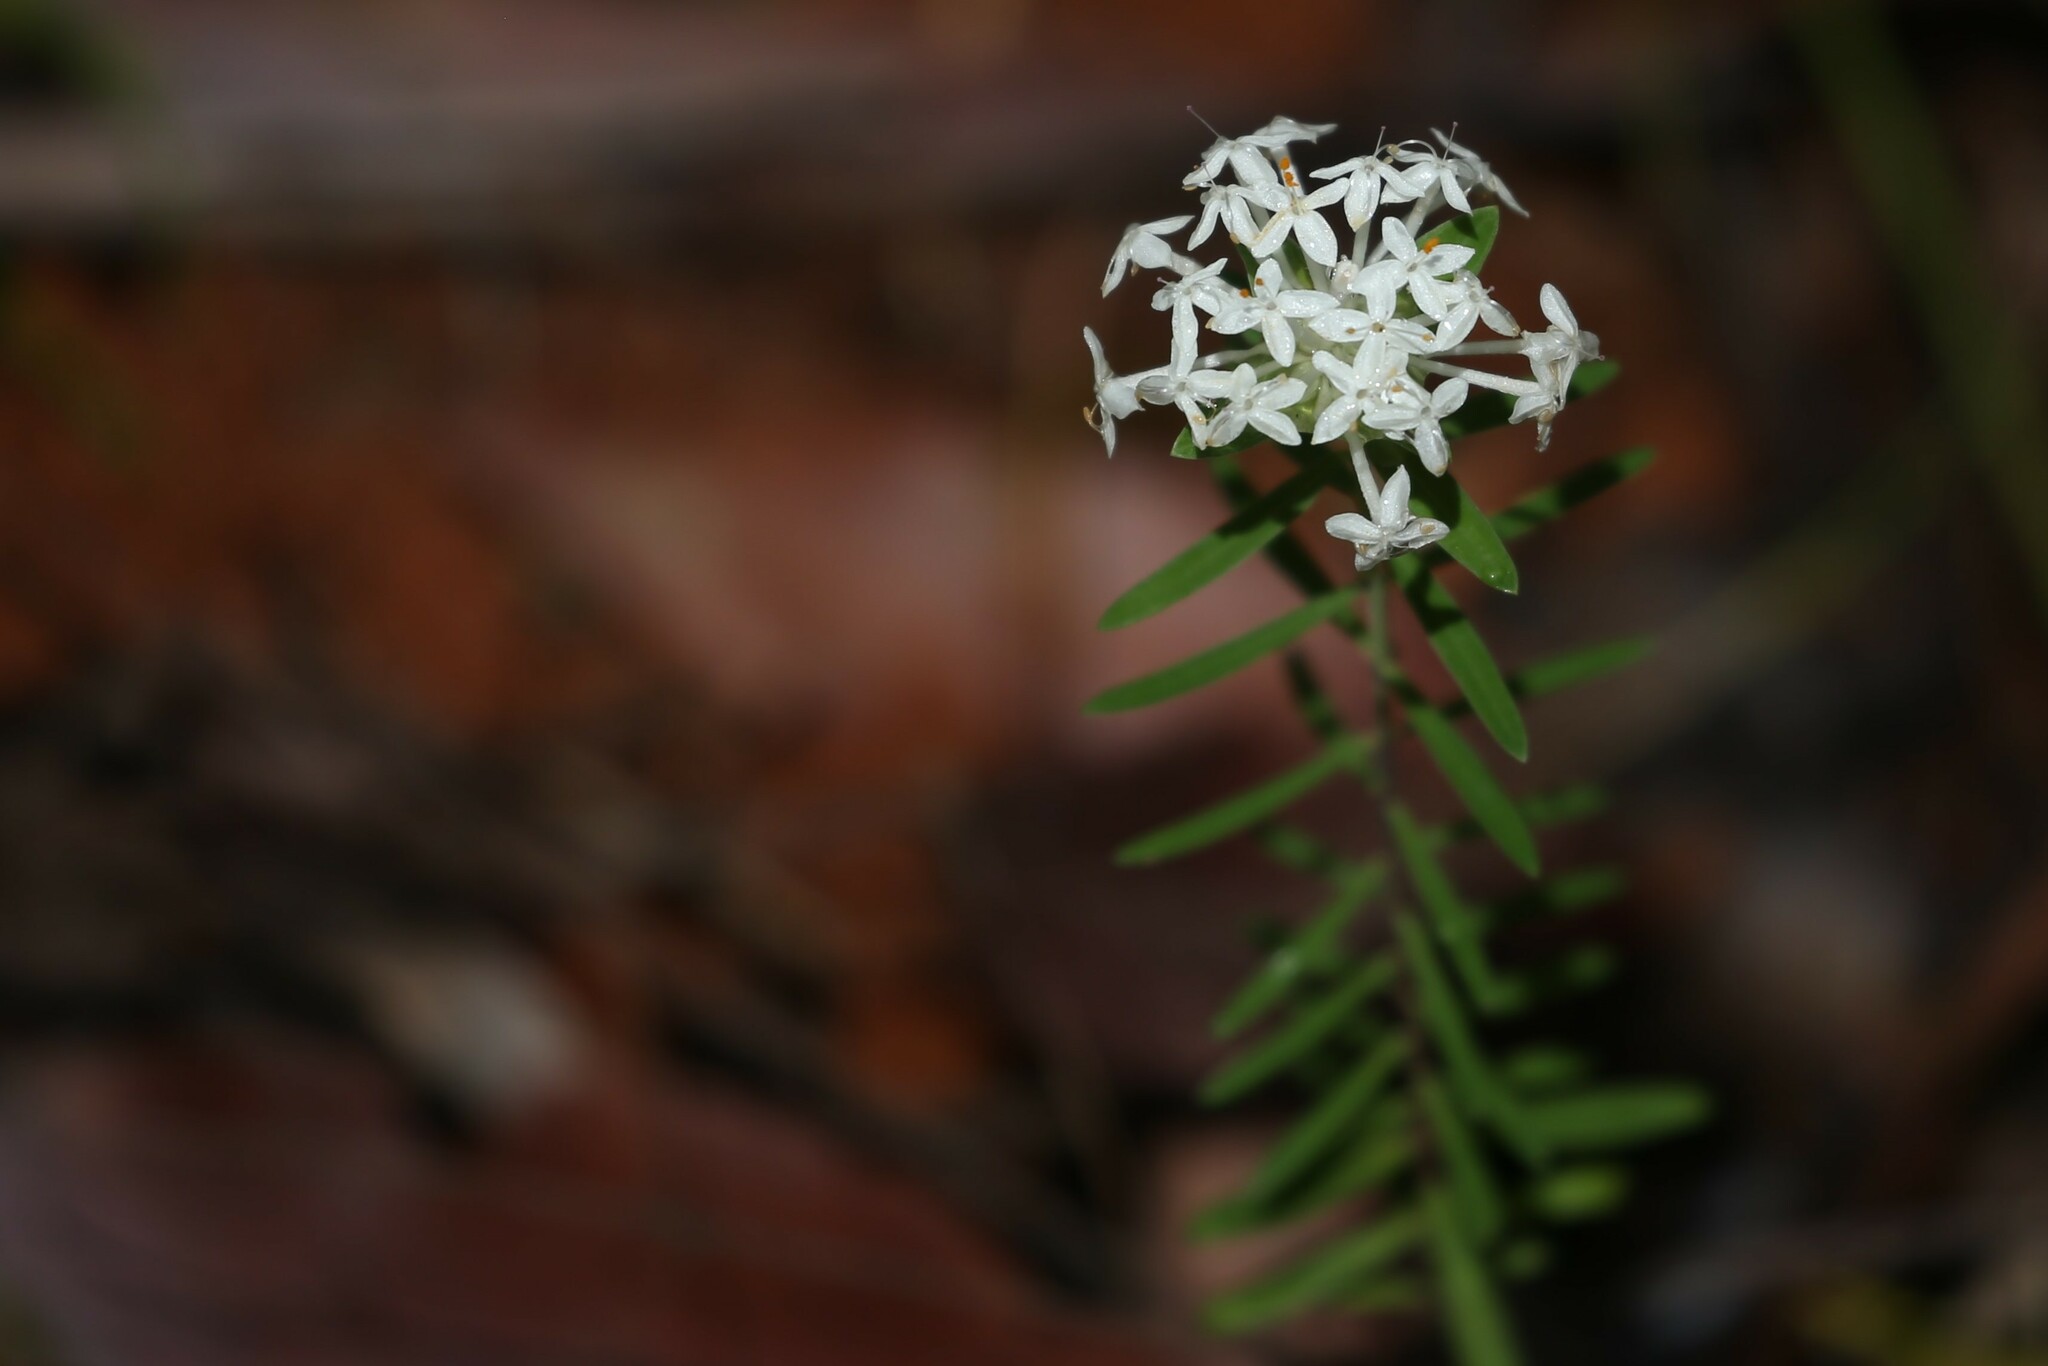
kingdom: Plantae
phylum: Tracheophyta
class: Magnoliopsida
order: Malvales
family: Thymelaeaceae
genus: Pimelea
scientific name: Pimelea linifolia
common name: Queen-of-the-bush
